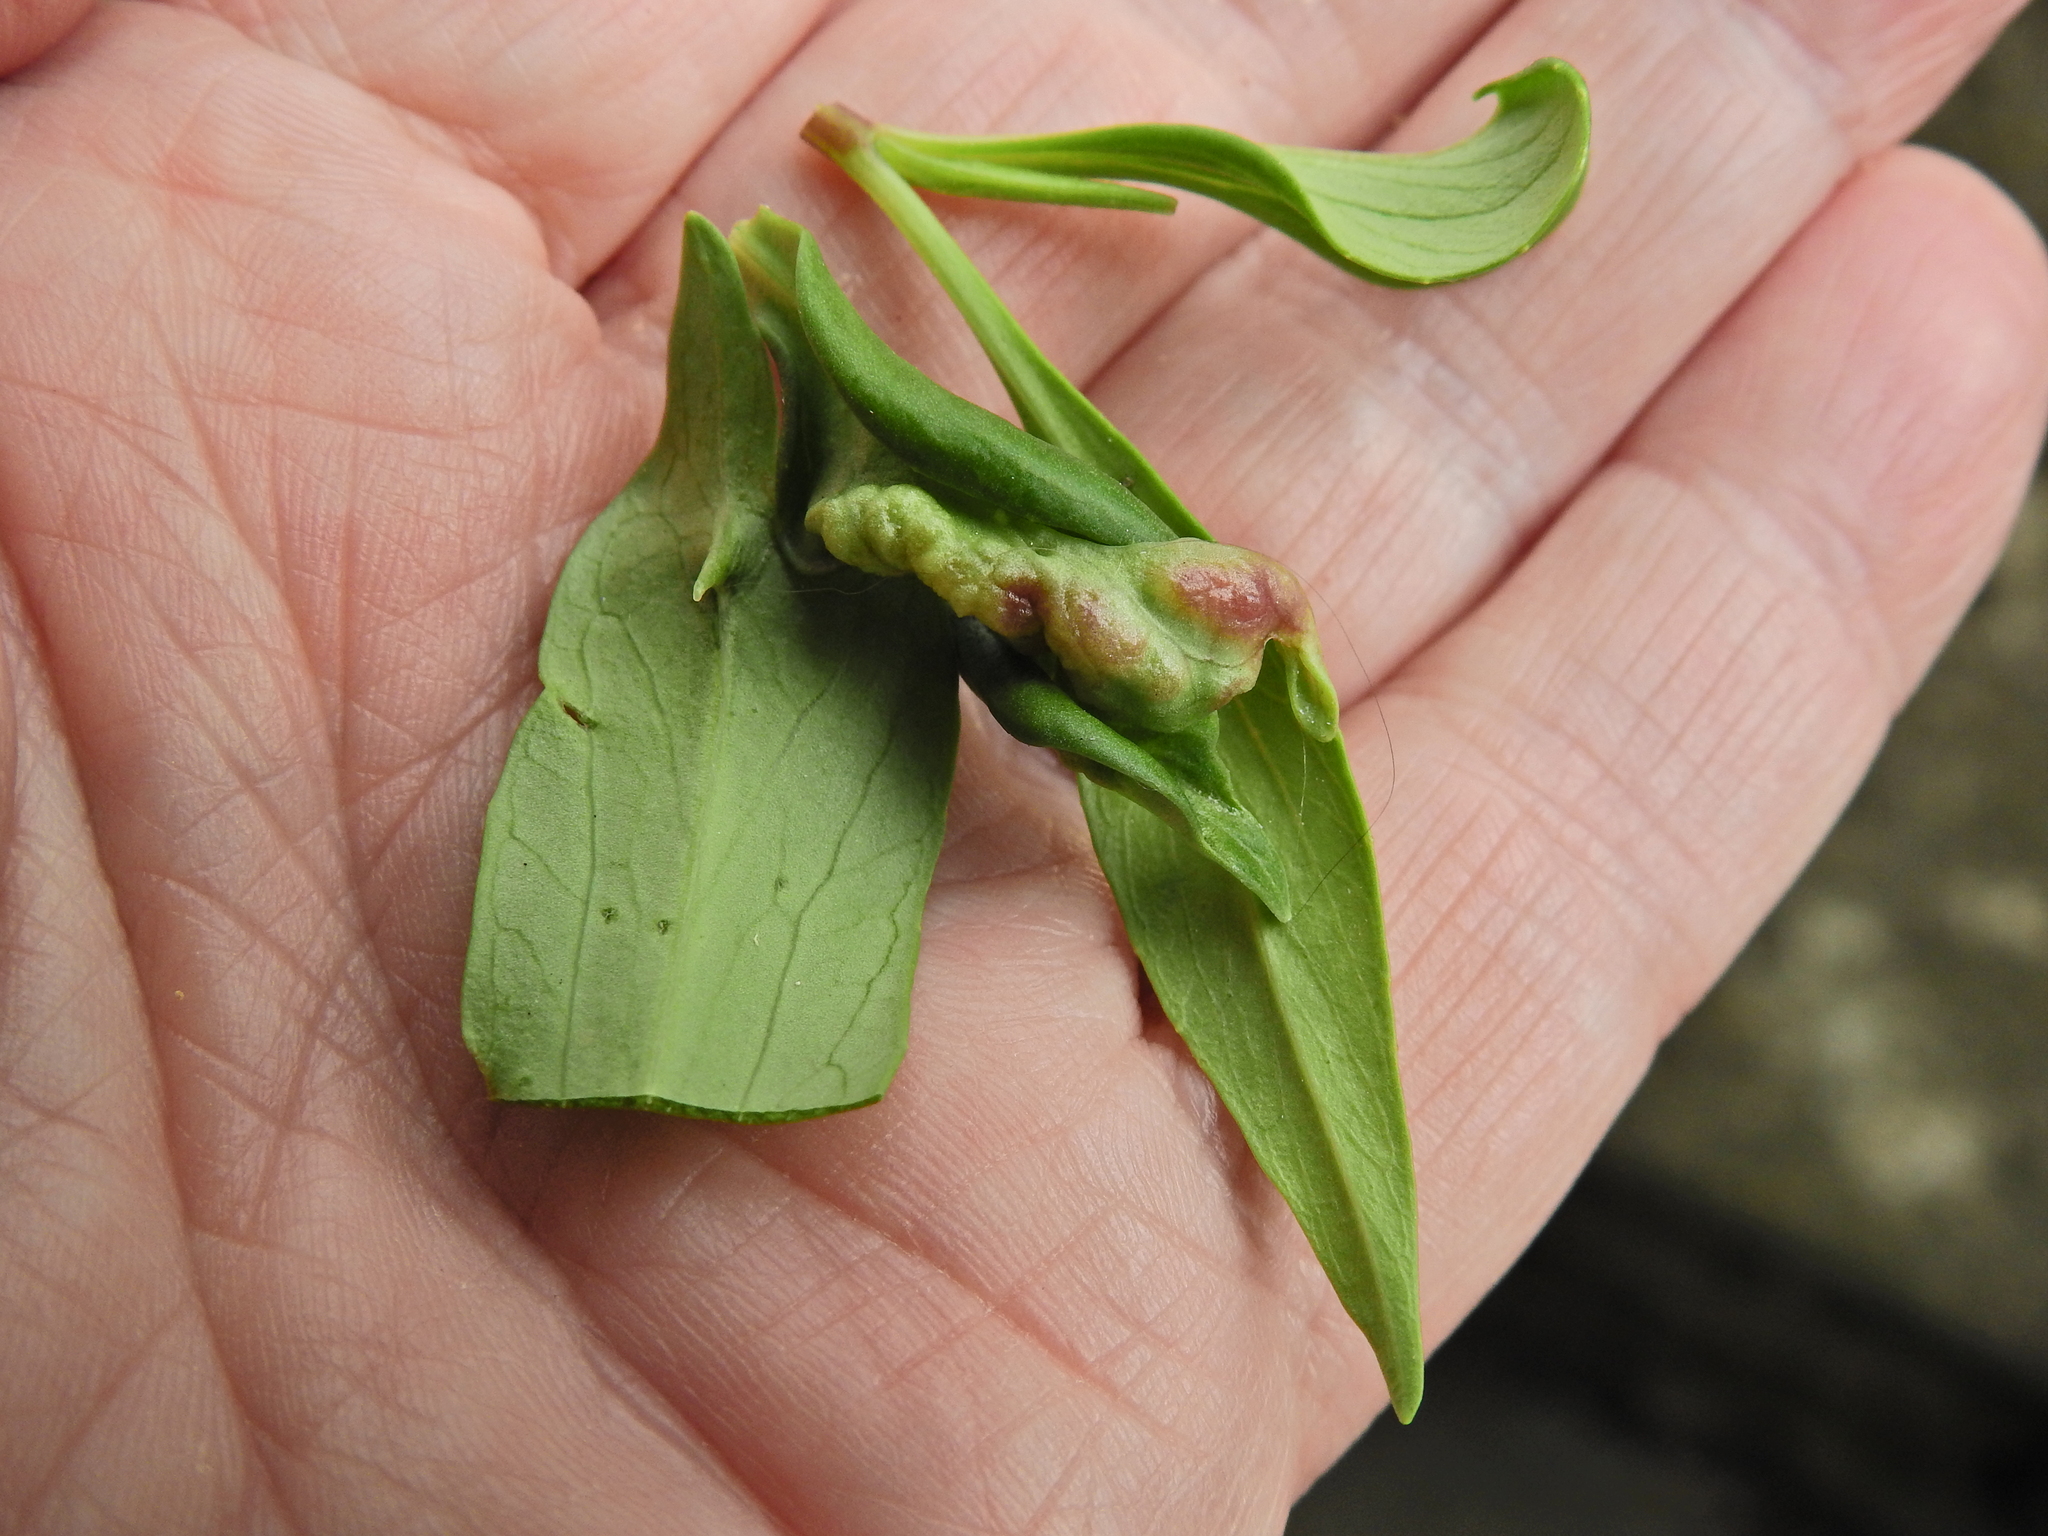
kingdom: Animalia
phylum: Arthropoda
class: Insecta
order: Hemiptera
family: Triozidae
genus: Trioza
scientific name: Trioza centranthi
